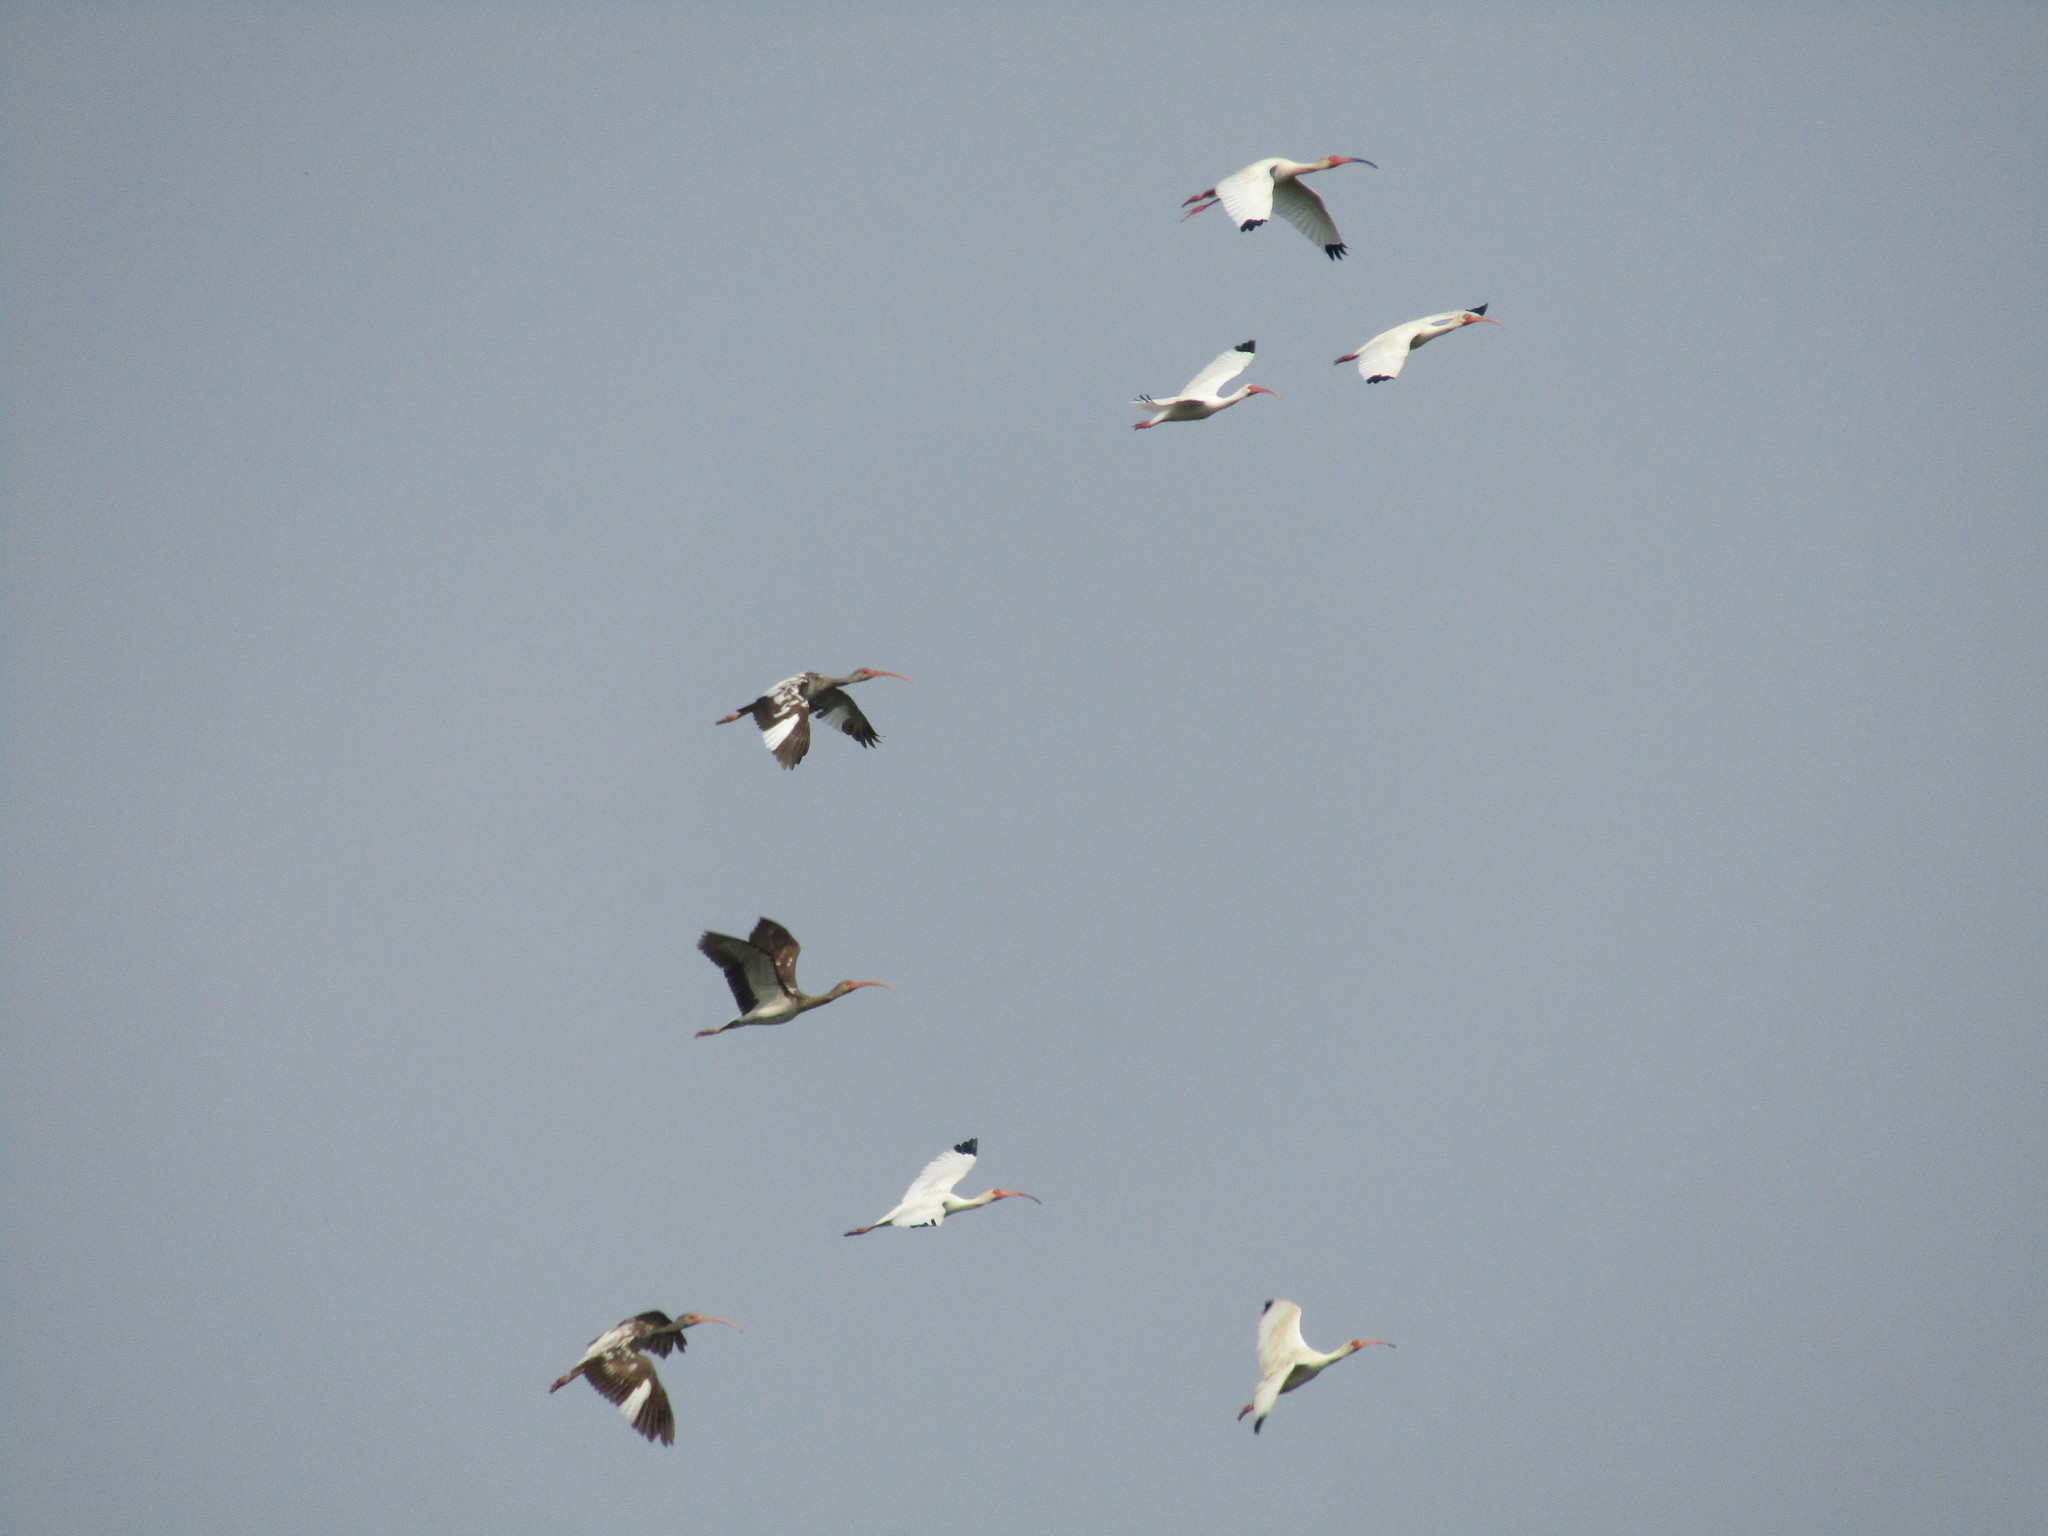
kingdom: Animalia
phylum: Chordata
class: Aves
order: Pelecaniformes
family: Threskiornithidae
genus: Eudocimus
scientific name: Eudocimus albus
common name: White ibis
